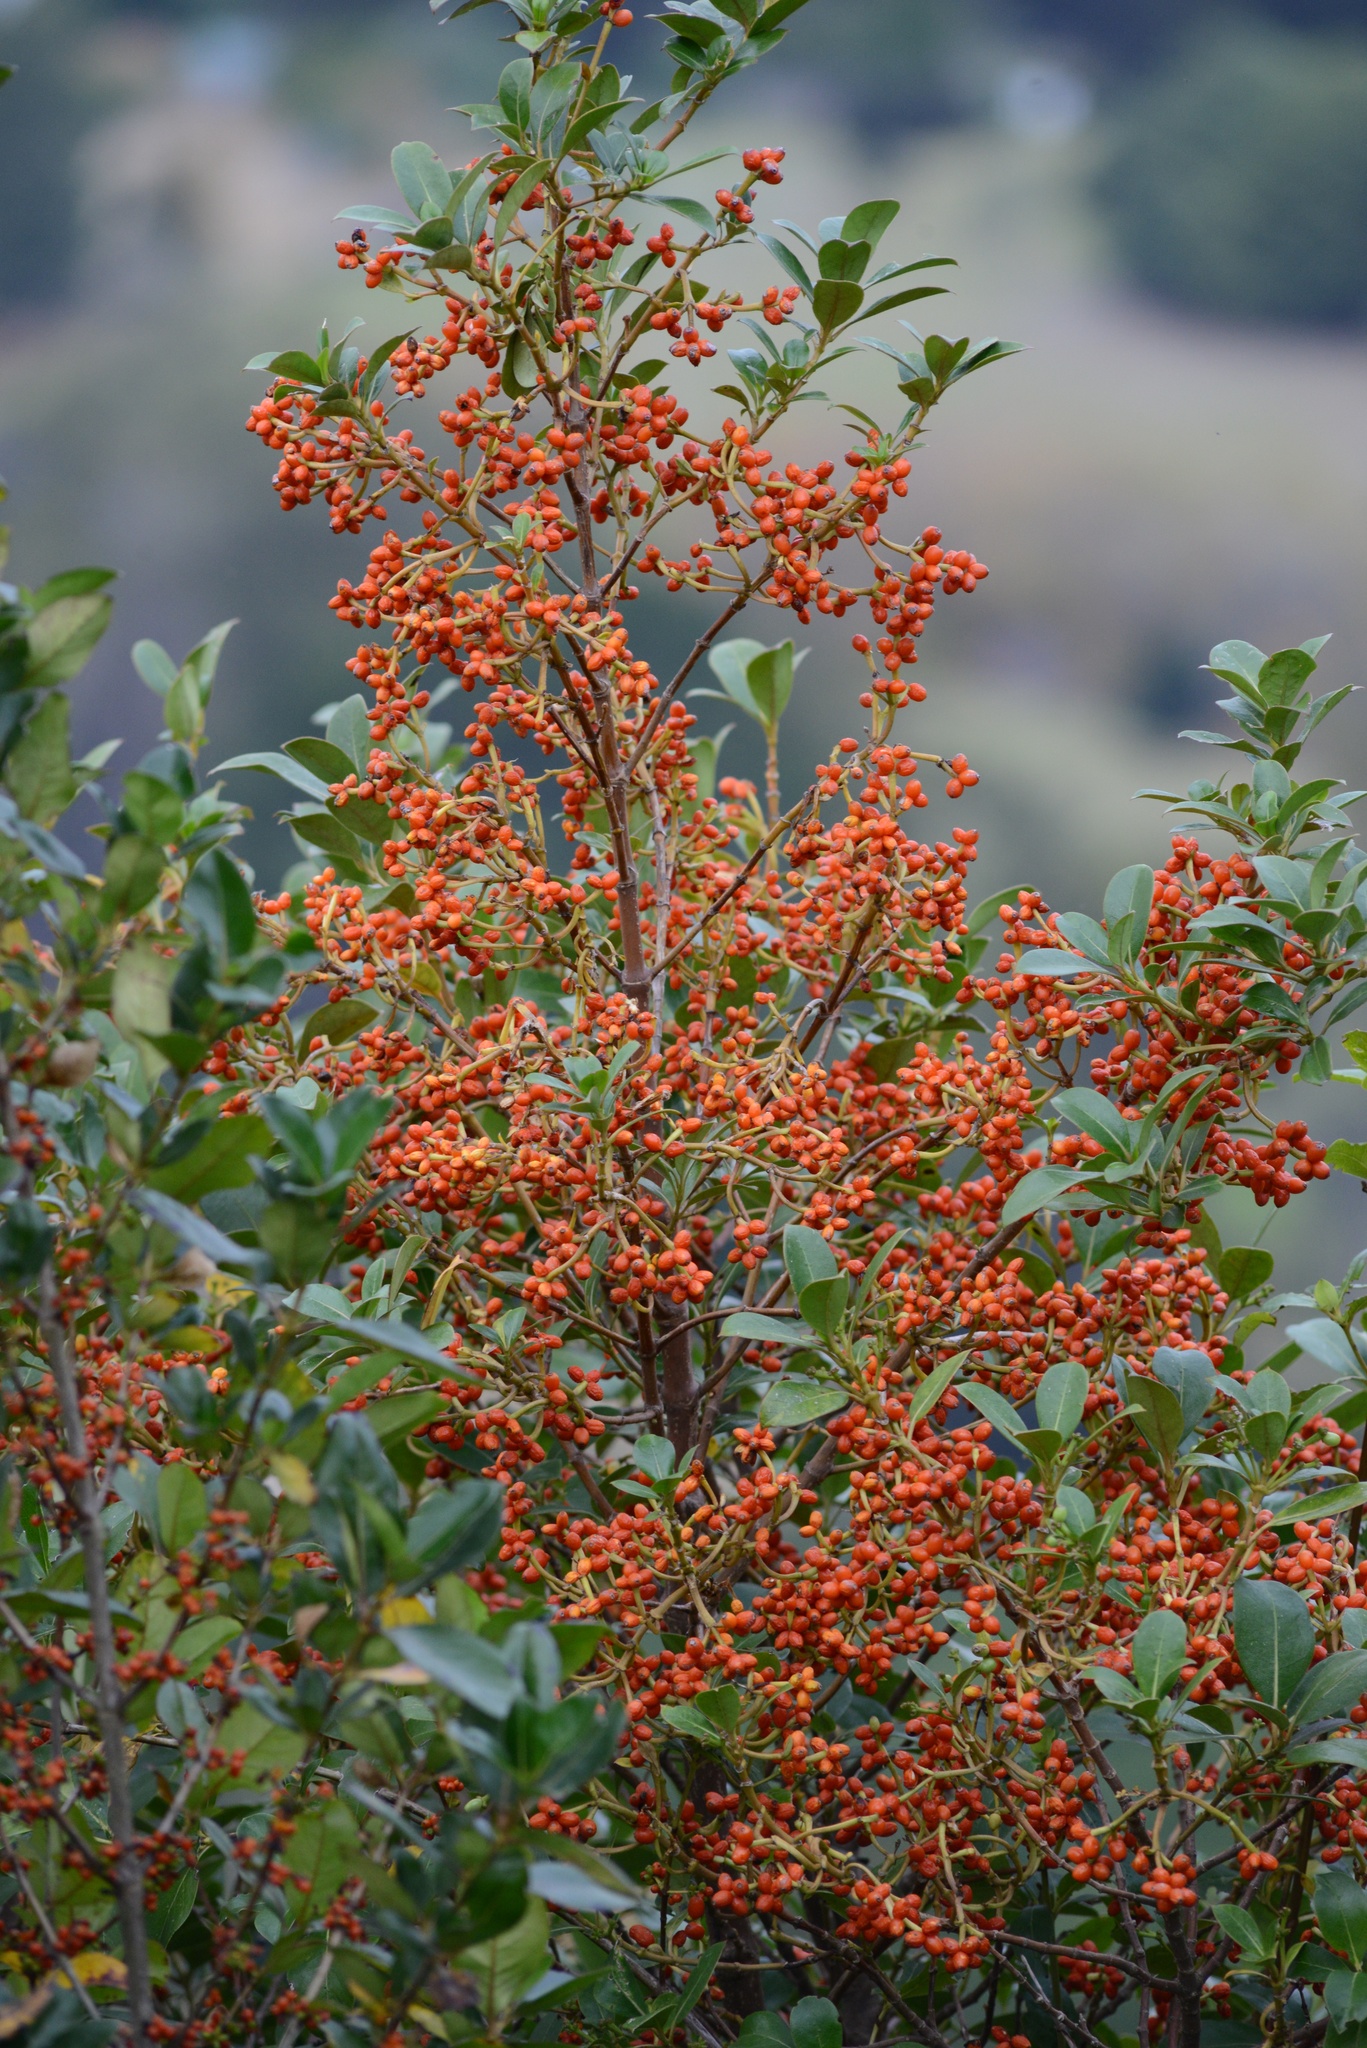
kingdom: Plantae
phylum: Tracheophyta
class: Magnoliopsida
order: Gentianales
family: Rubiaceae
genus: Coprosma
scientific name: Coprosma lucida
